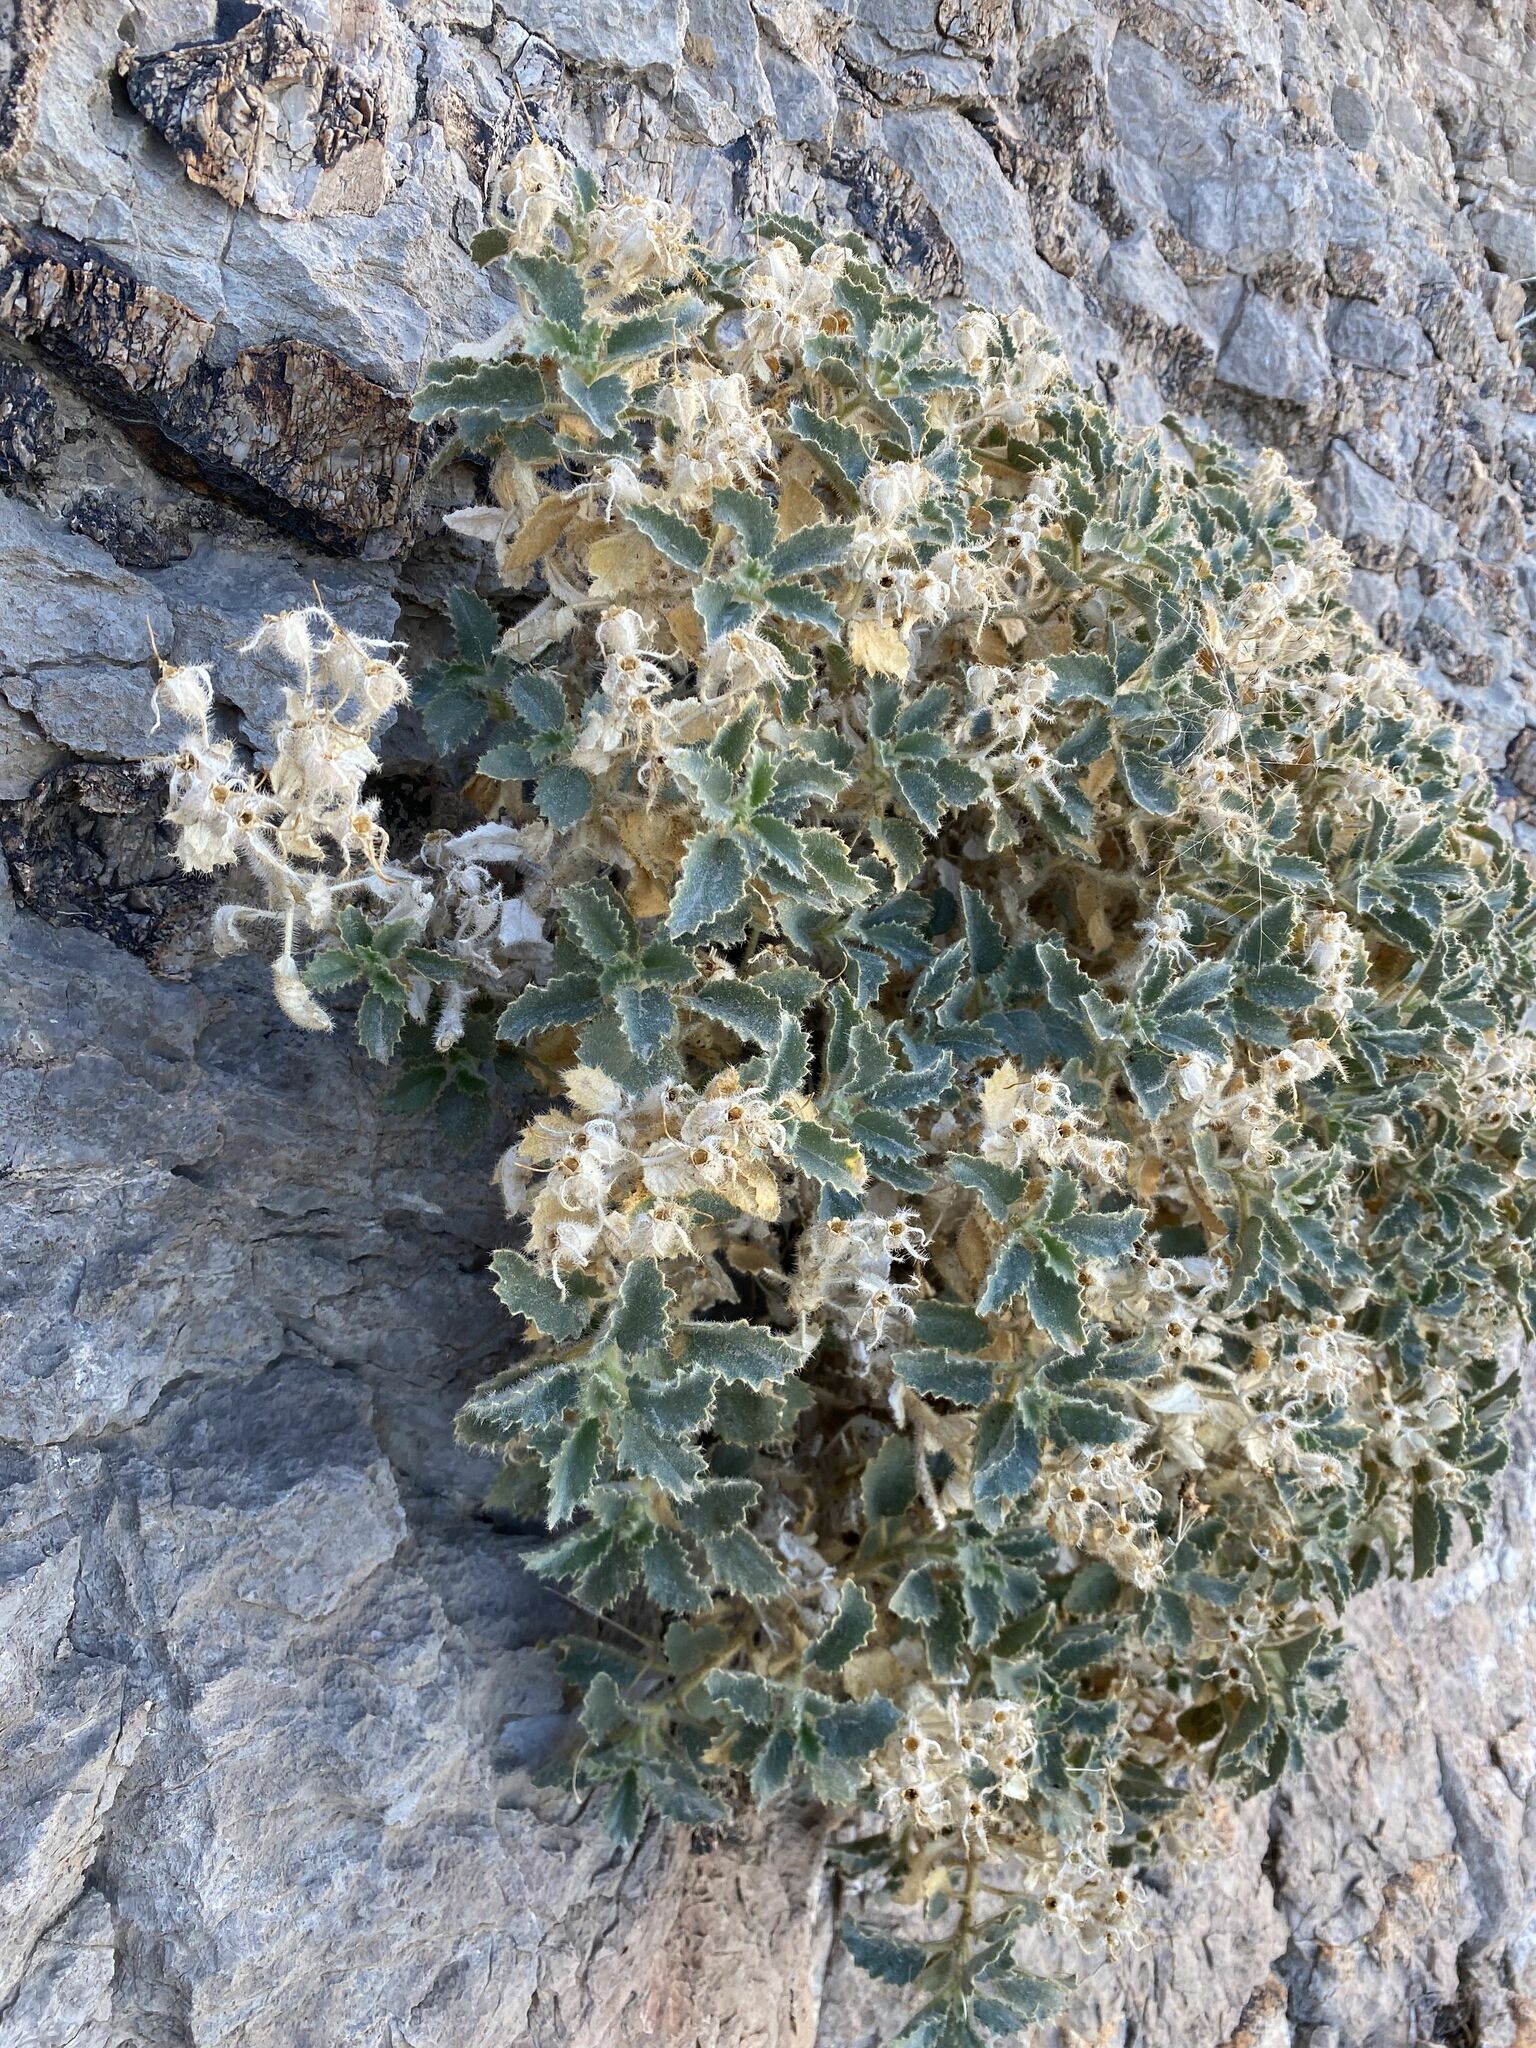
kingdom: Plantae
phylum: Tracheophyta
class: Magnoliopsida
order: Cornales
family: Loasaceae
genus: Eucnide
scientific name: Eucnide urens
